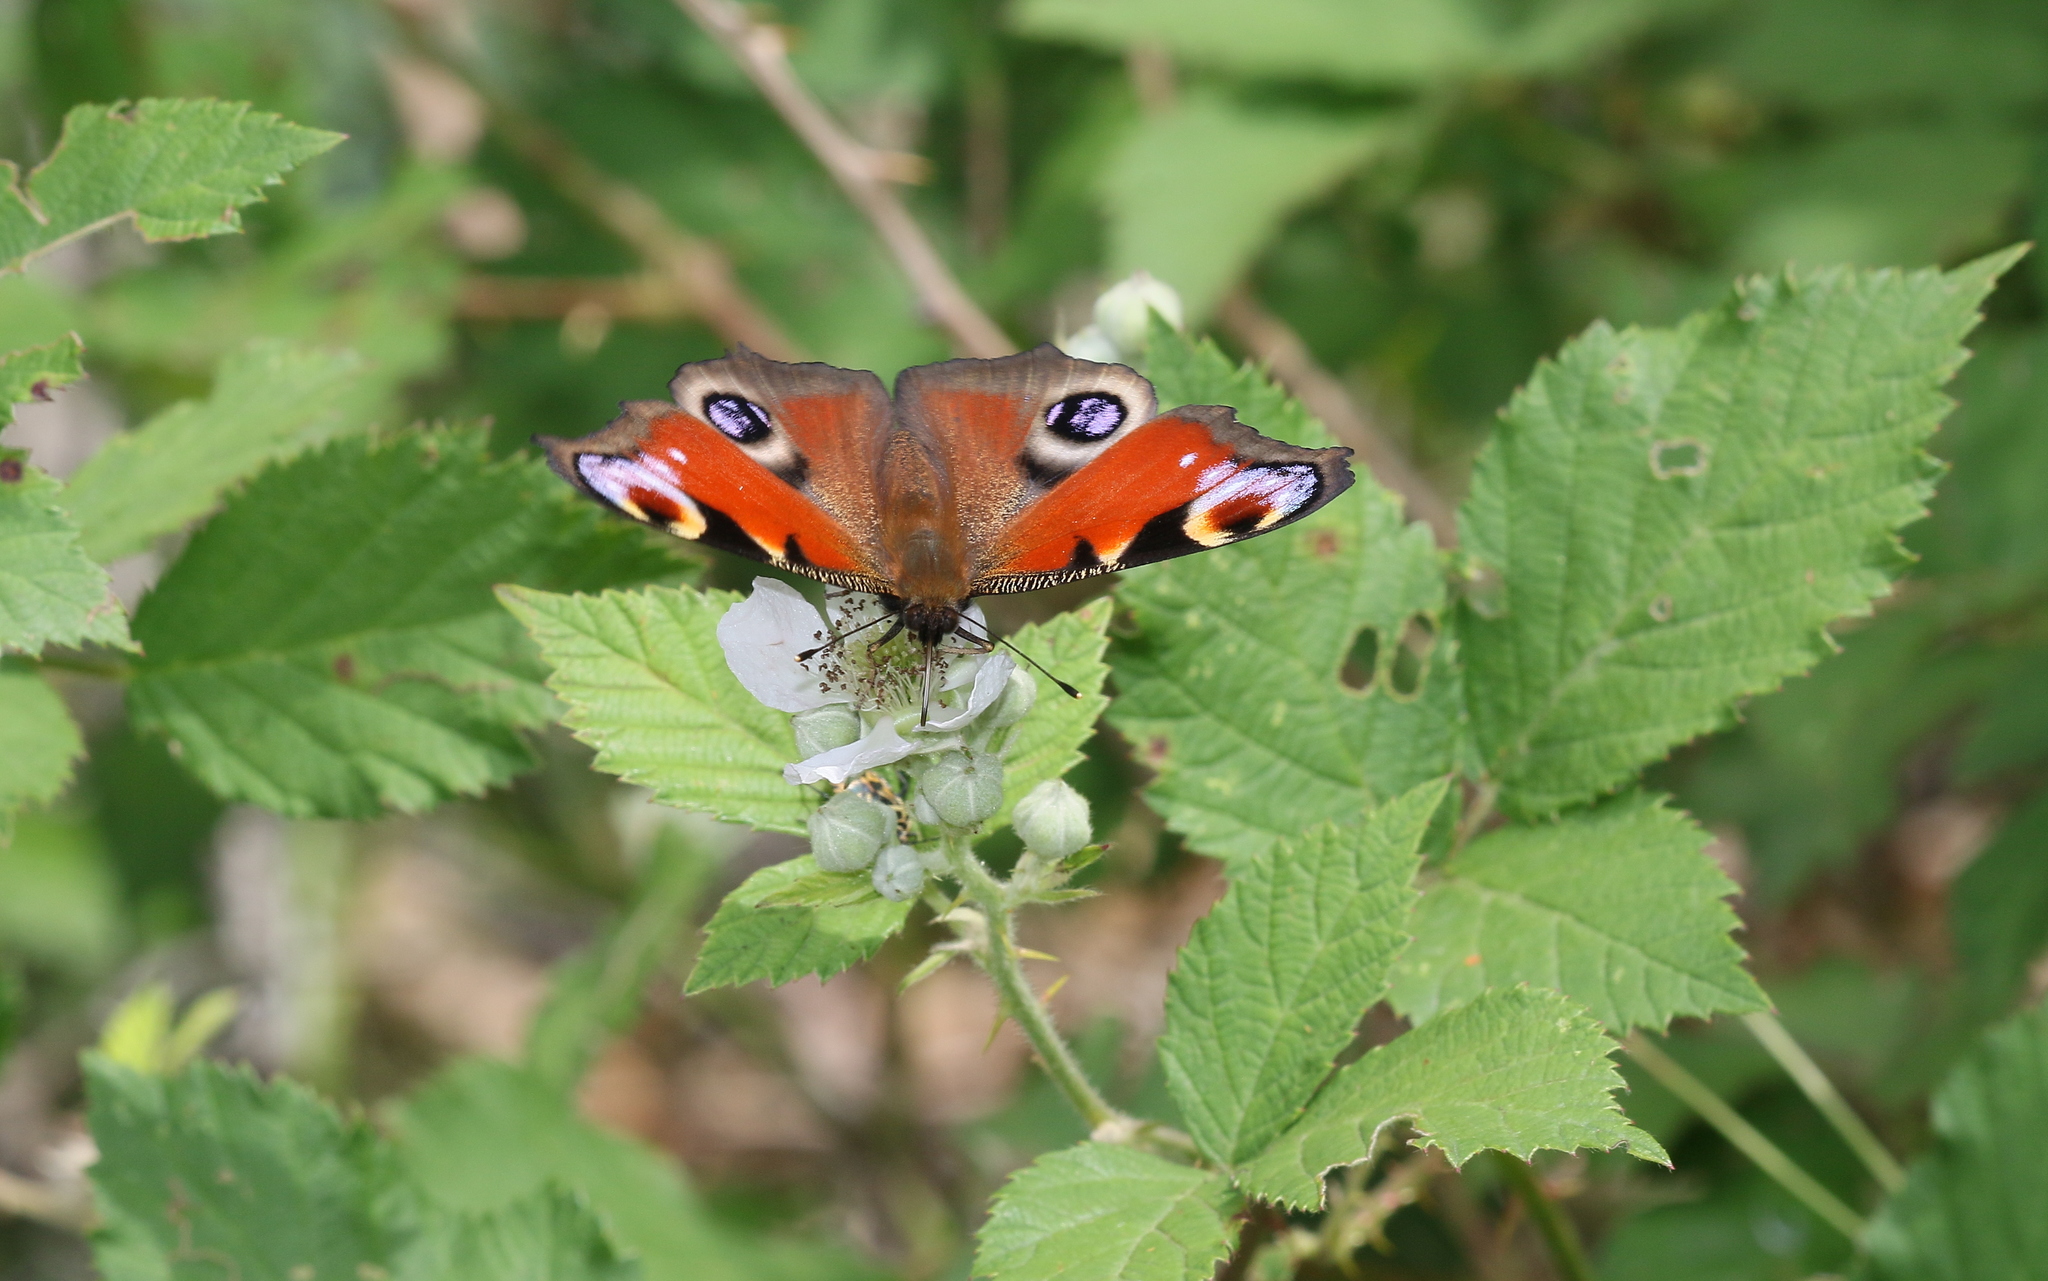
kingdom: Animalia
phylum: Arthropoda
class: Insecta
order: Lepidoptera
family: Nymphalidae
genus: Aglais
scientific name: Aglais io
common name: Peacock
